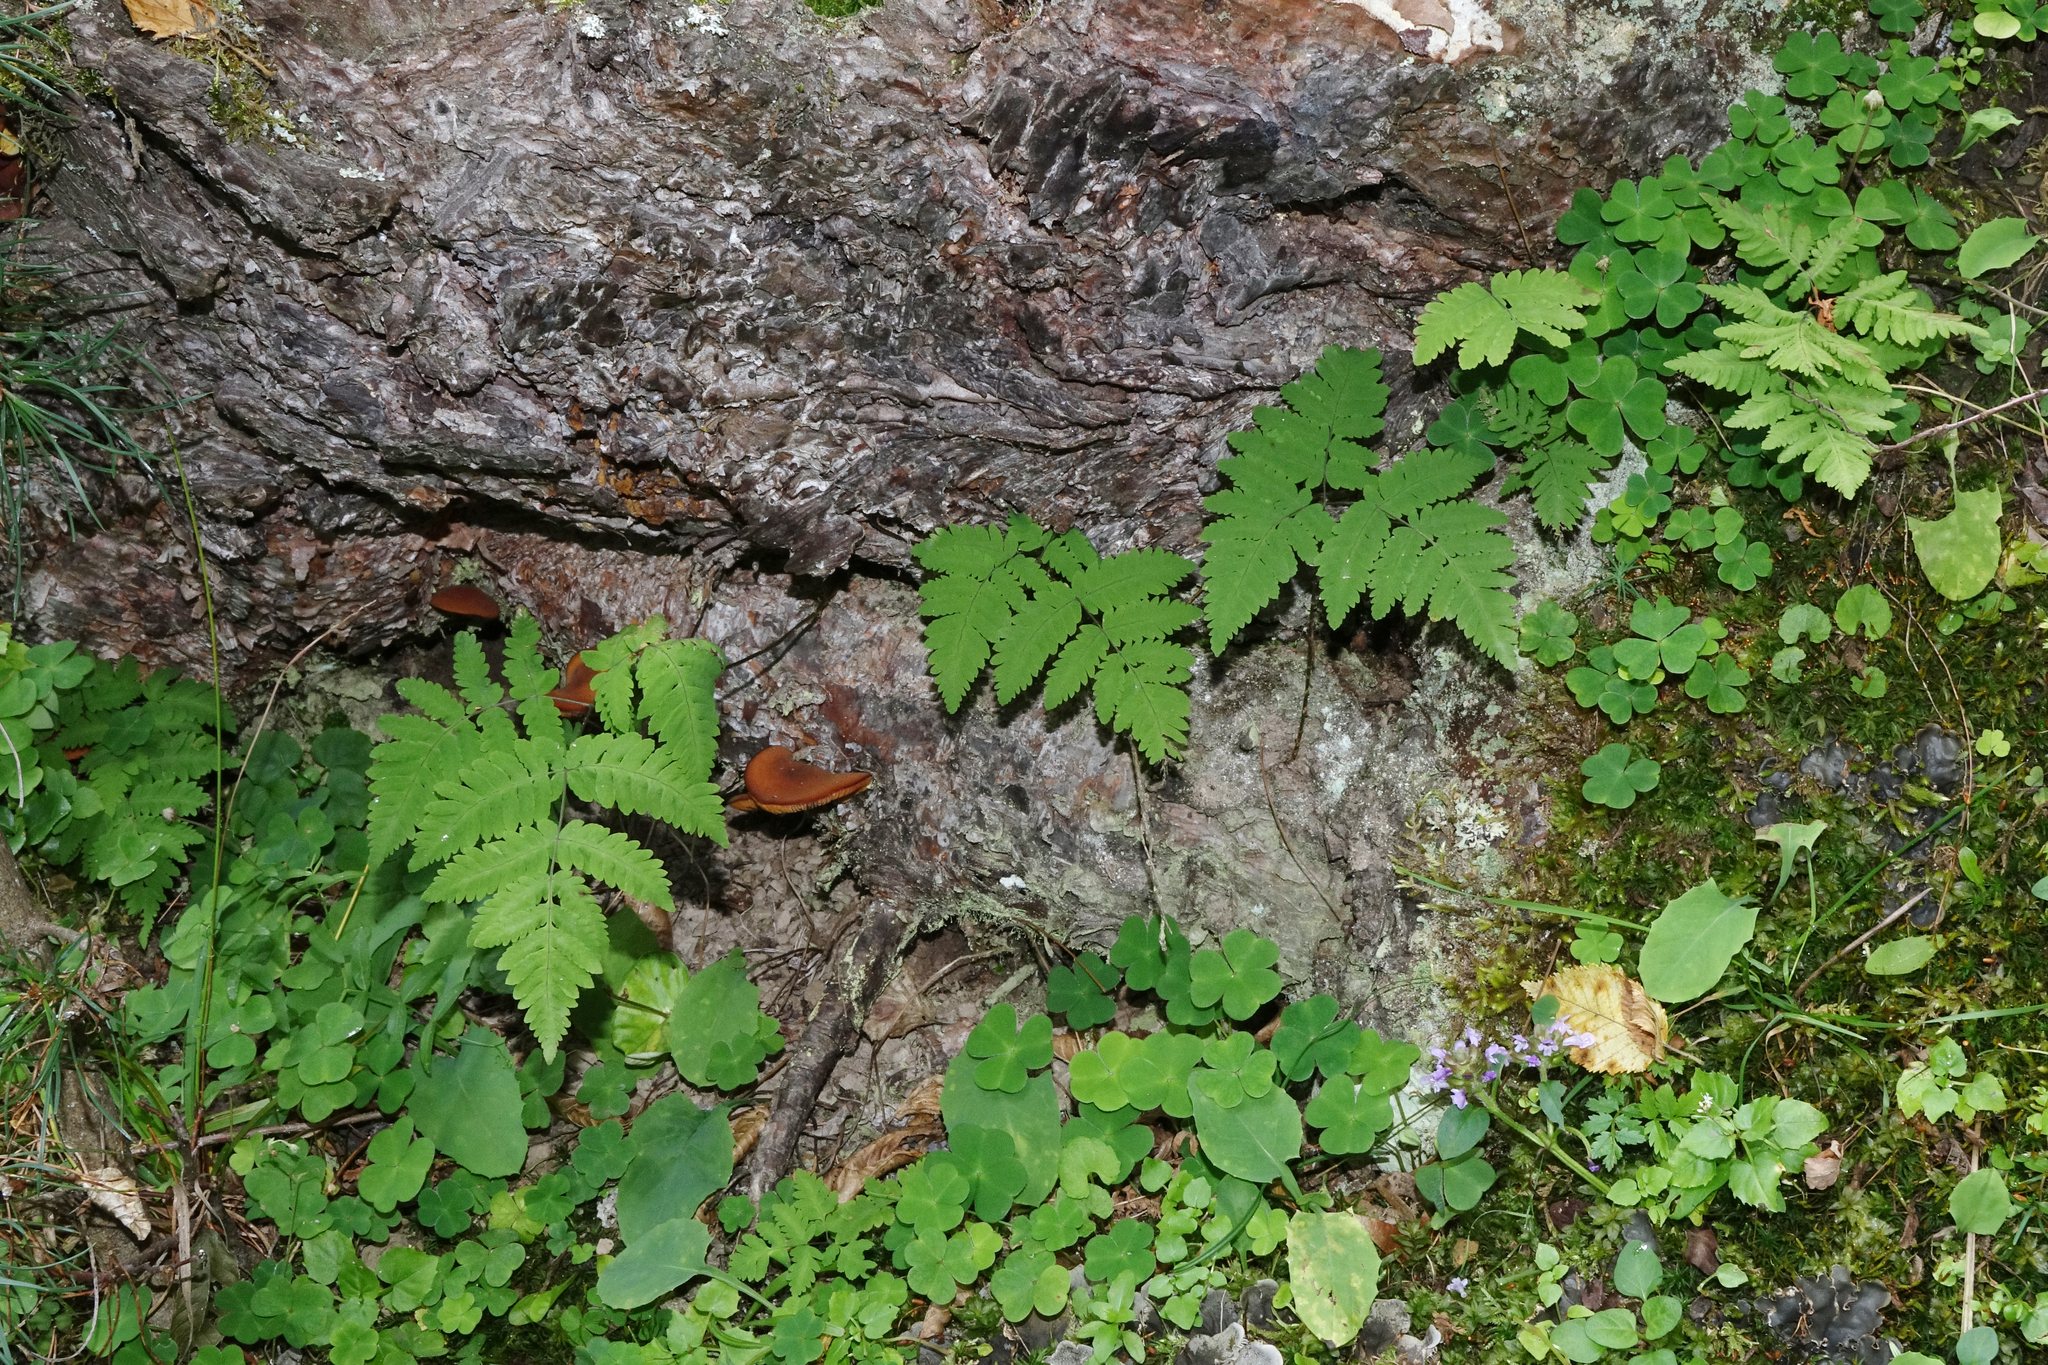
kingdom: Plantae
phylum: Tracheophyta
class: Polypodiopsida
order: Polypodiales
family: Cystopteridaceae
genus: Gymnocarpium
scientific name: Gymnocarpium dryopteris
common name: Oak fern
